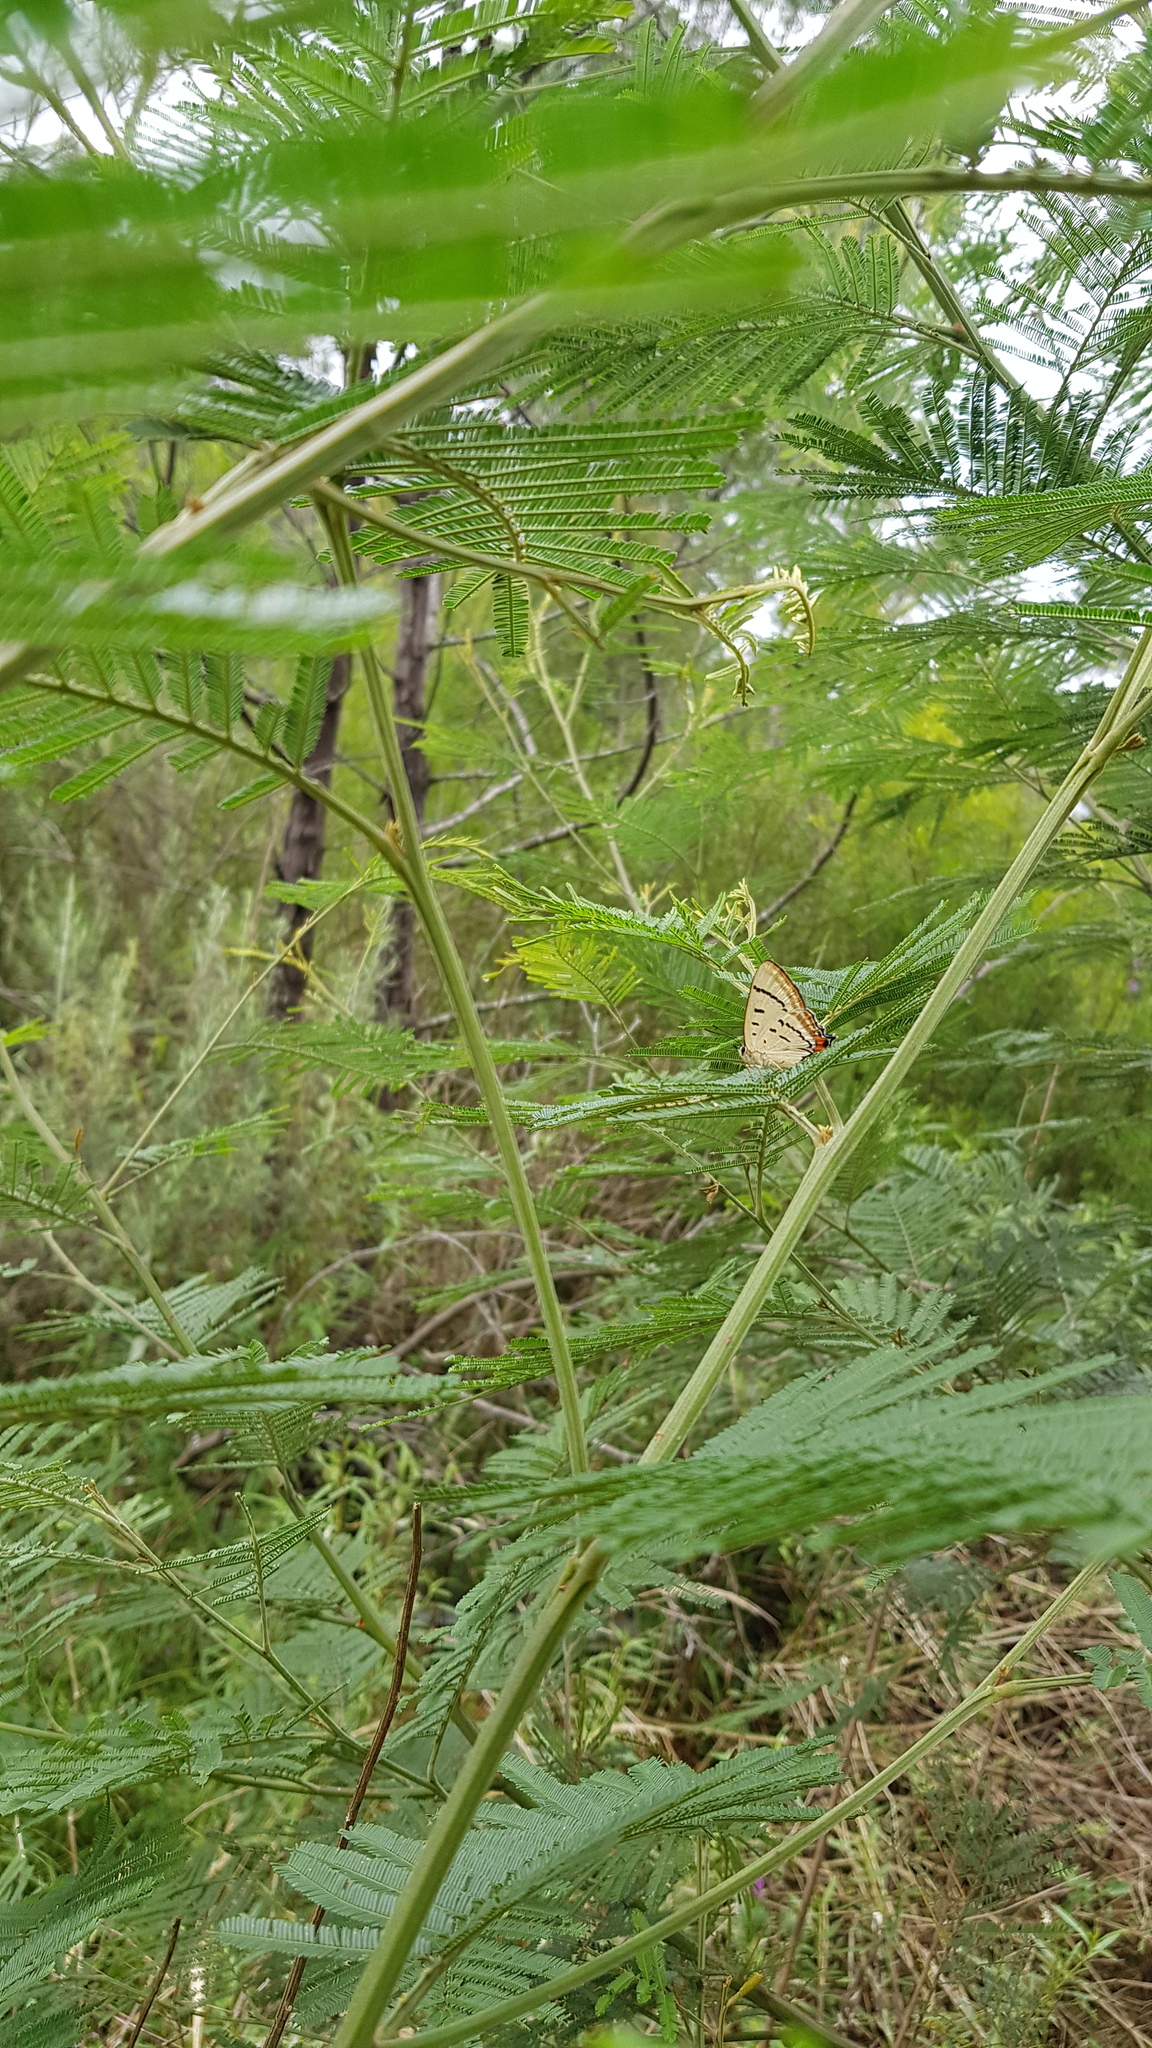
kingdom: Animalia
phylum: Arthropoda
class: Insecta
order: Lepidoptera
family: Lycaenidae
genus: Jalmenus
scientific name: Jalmenus evagoras
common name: Common imperial blue
